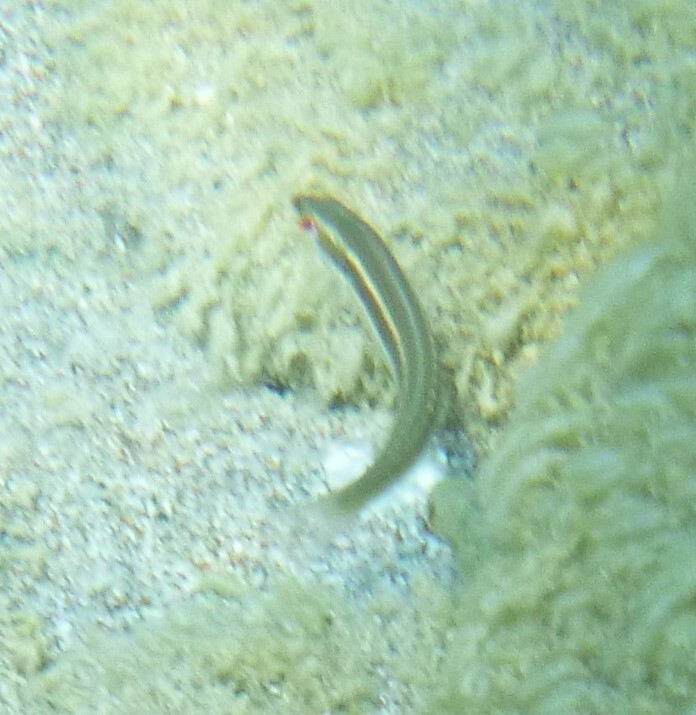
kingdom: Animalia
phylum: Chordata
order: Perciformes
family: Labridae
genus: Coris
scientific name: Coris julis
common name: Rainbow wrasse
